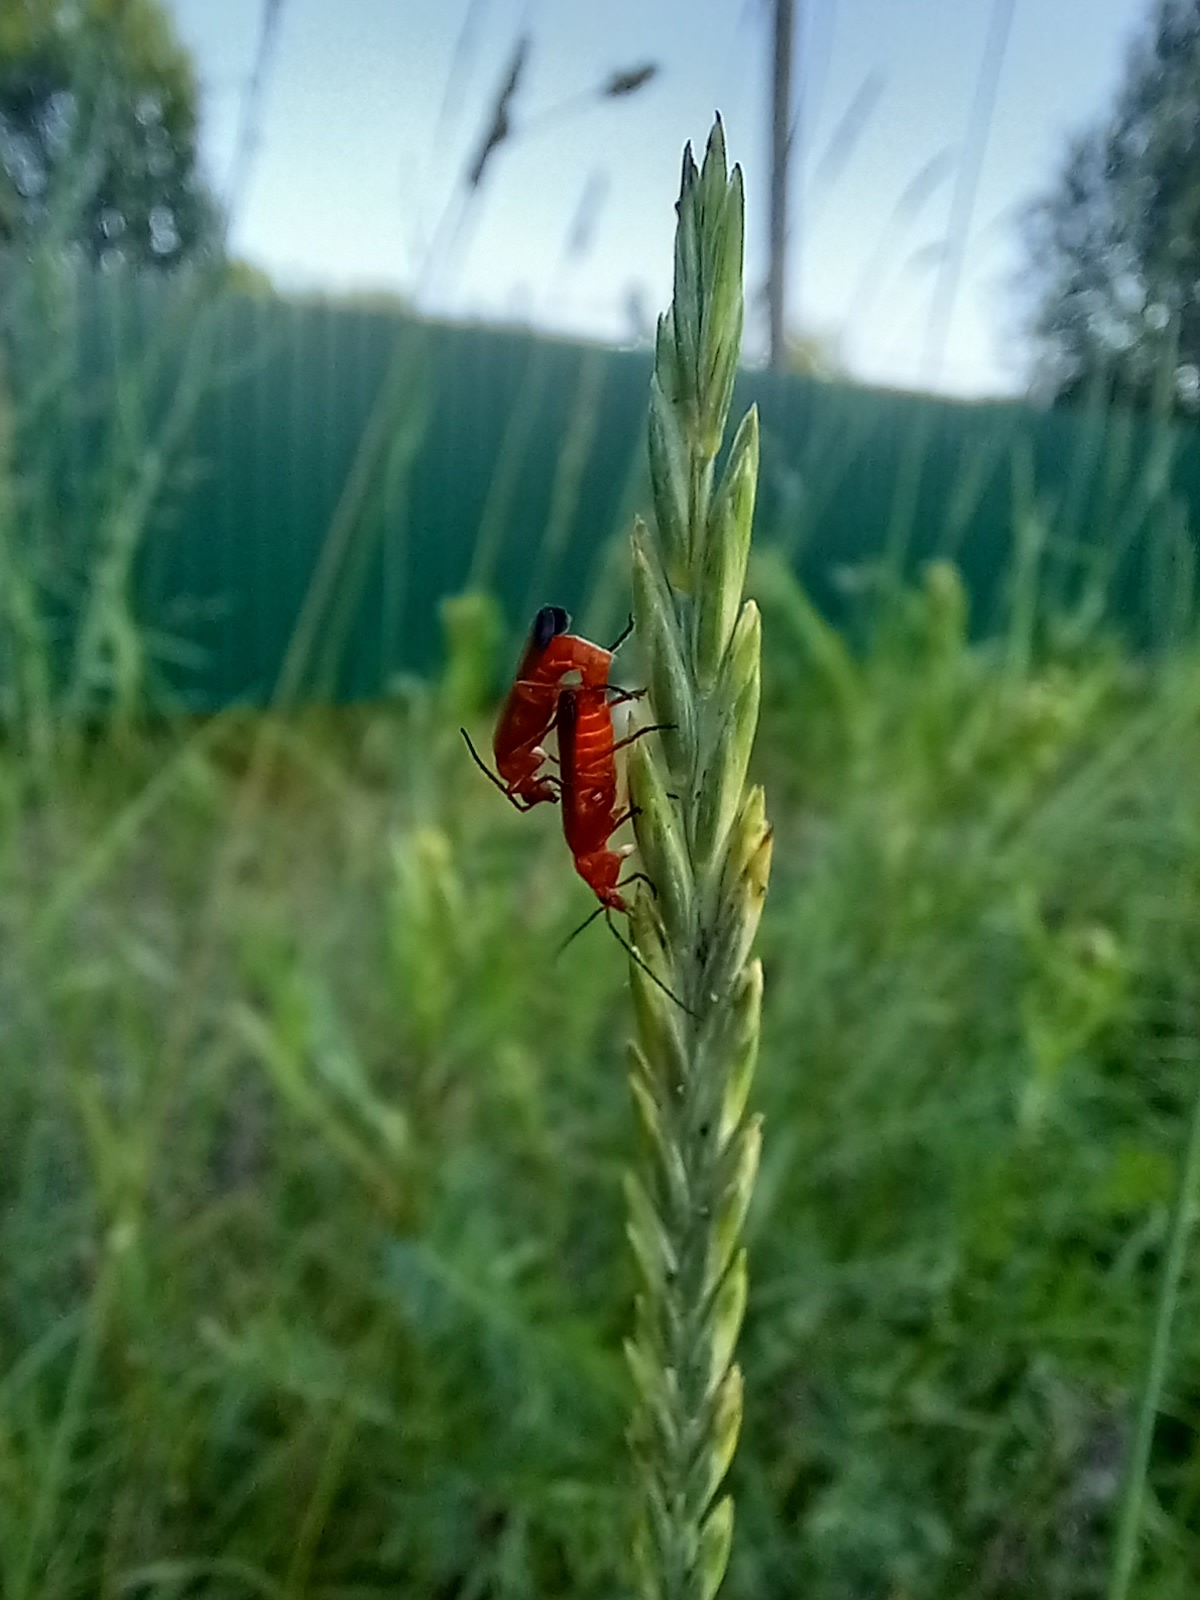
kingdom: Animalia
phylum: Arthropoda
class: Insecta
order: Coleoptera
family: Cantharidae
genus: Rhagonycha
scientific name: Rhagonycha fulva
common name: Common red soldier beetle
